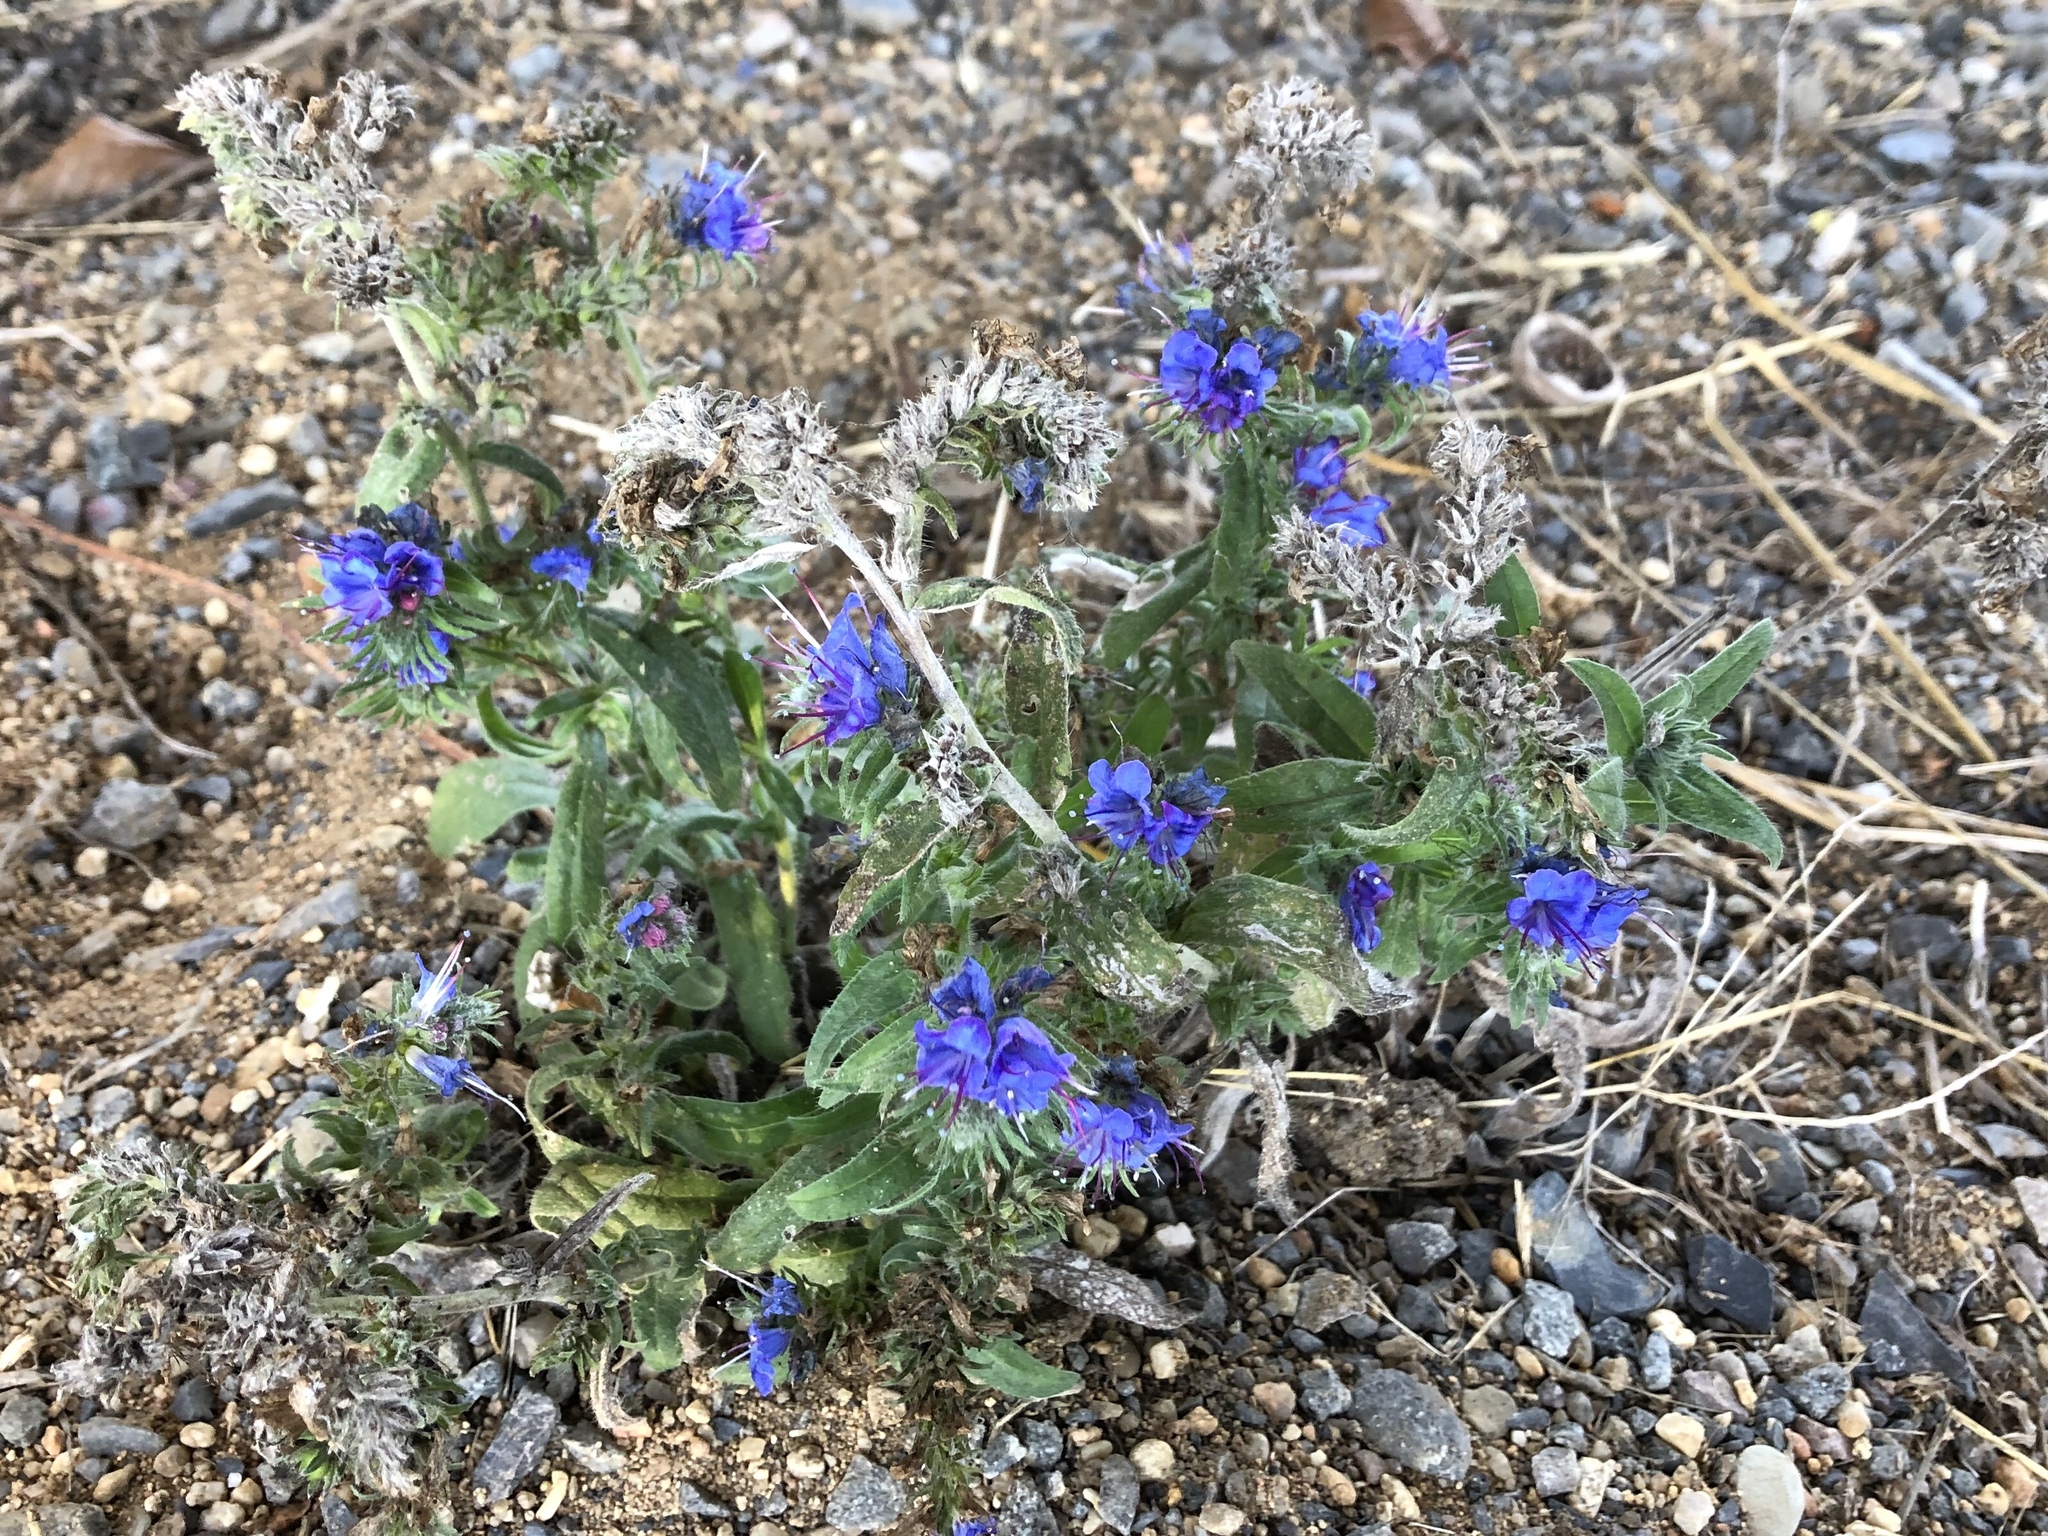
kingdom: Plantae
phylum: Tracheophyta
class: Magnoliopsida
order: Boraginales
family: Boraginaceae
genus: Echium
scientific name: Echium vulgare
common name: Common viper's bugloss
